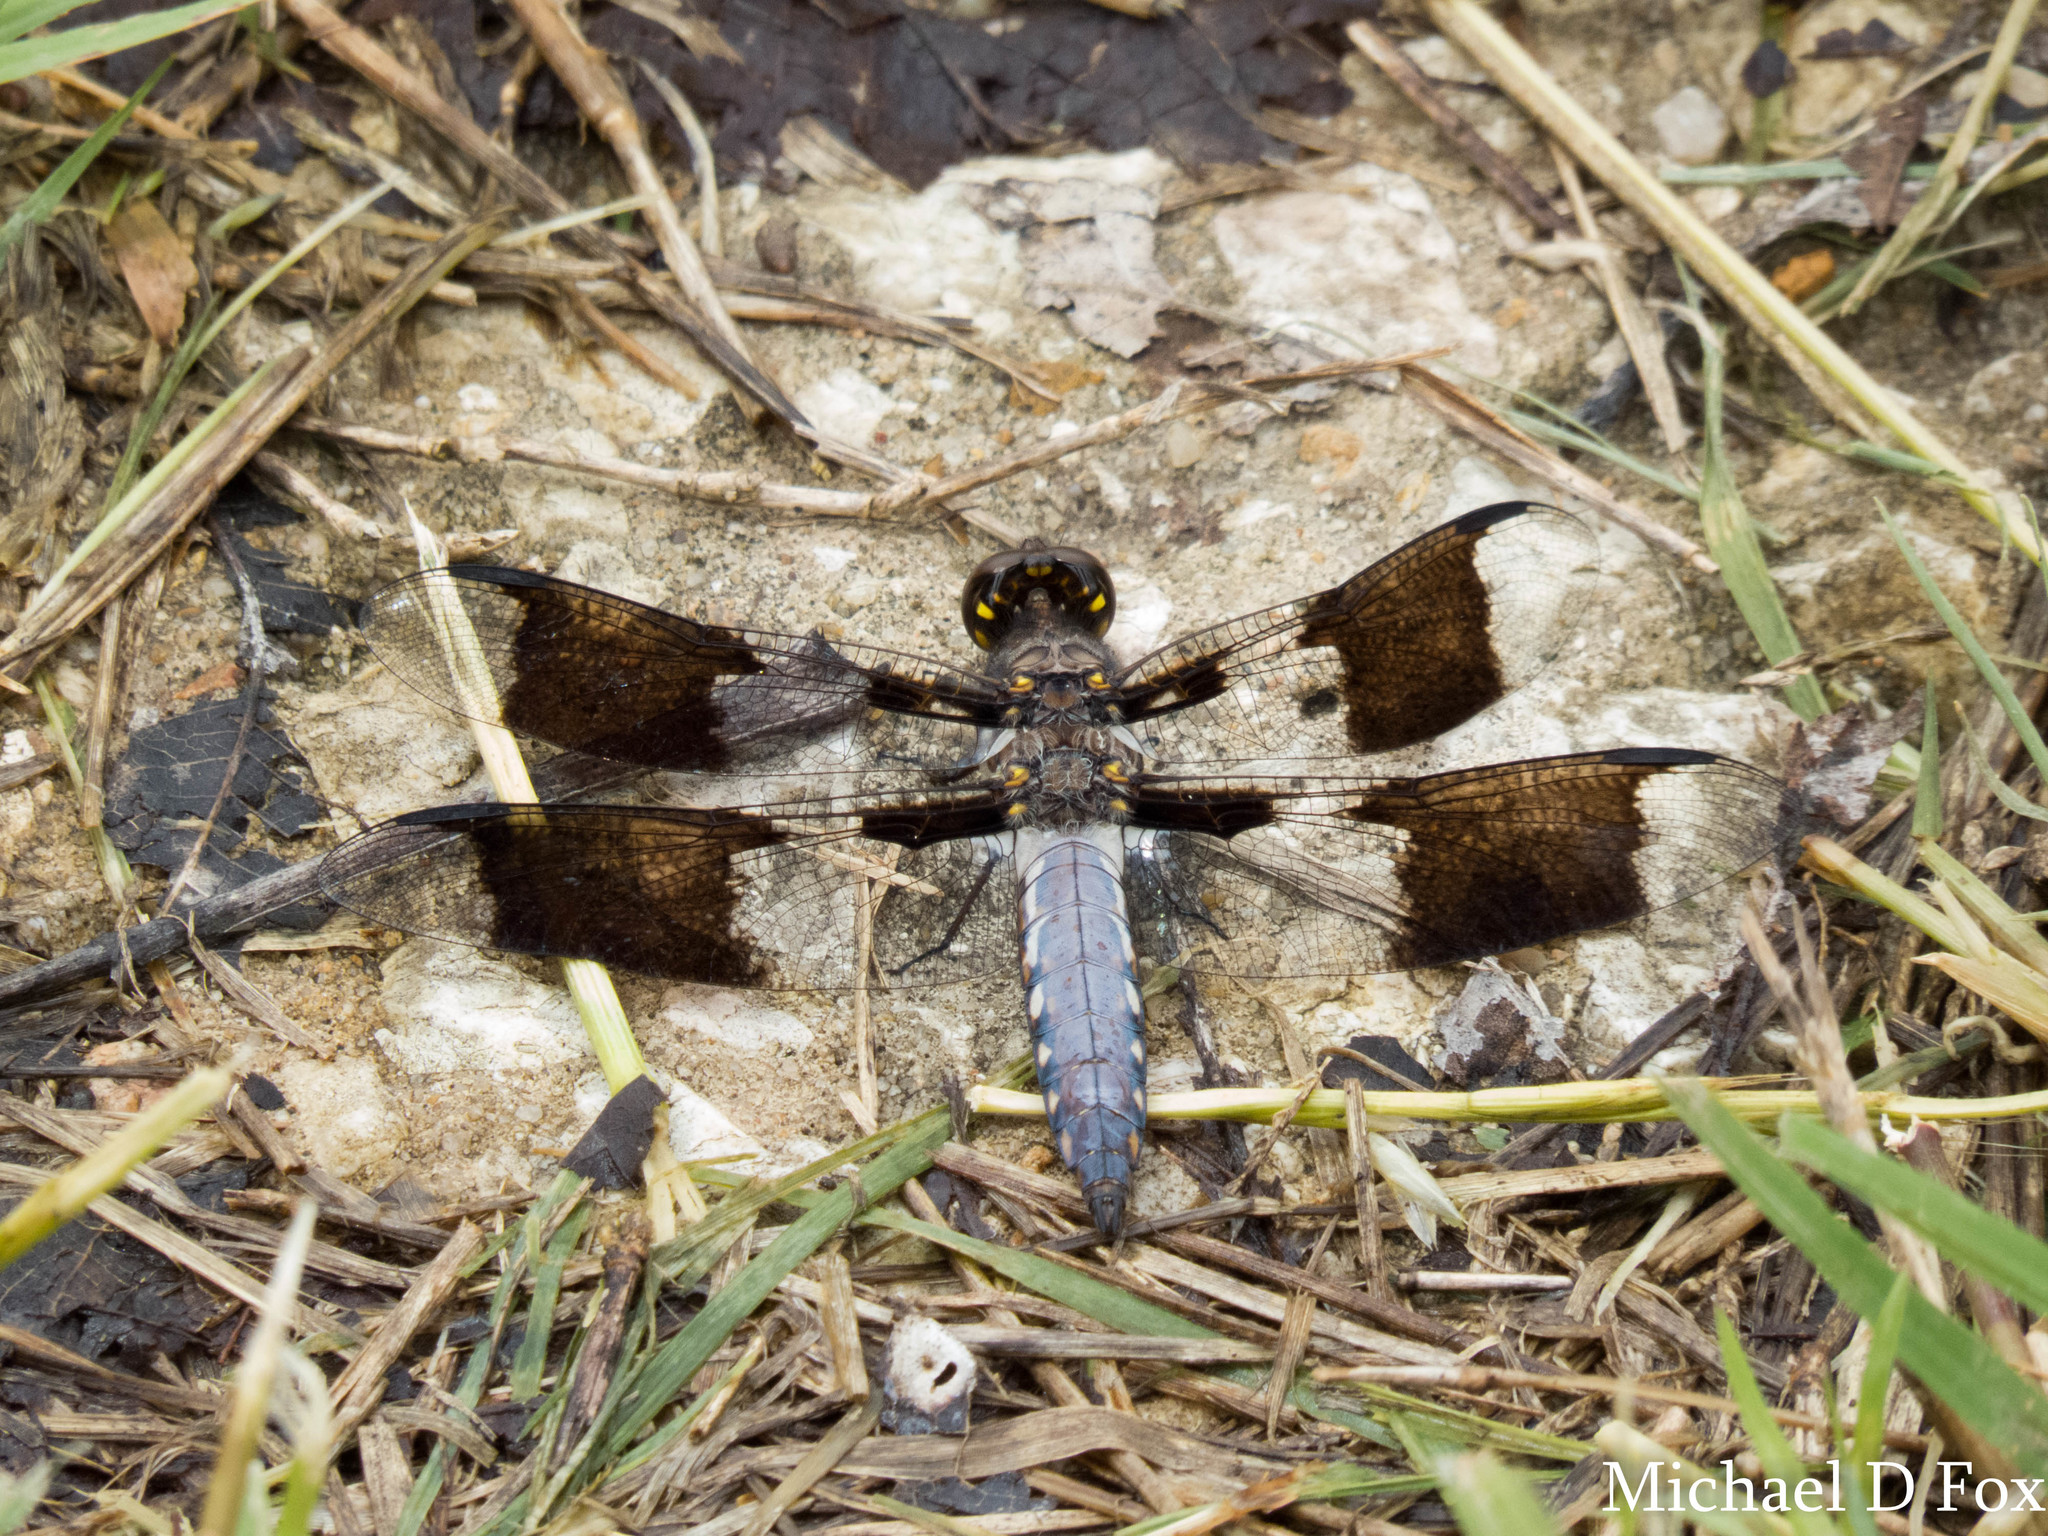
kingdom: Animalia
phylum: Arthropoda
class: Insecta
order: Odonata
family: Libellulidae
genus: Plathemis
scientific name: Plathemis lydia
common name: Common whitetail
